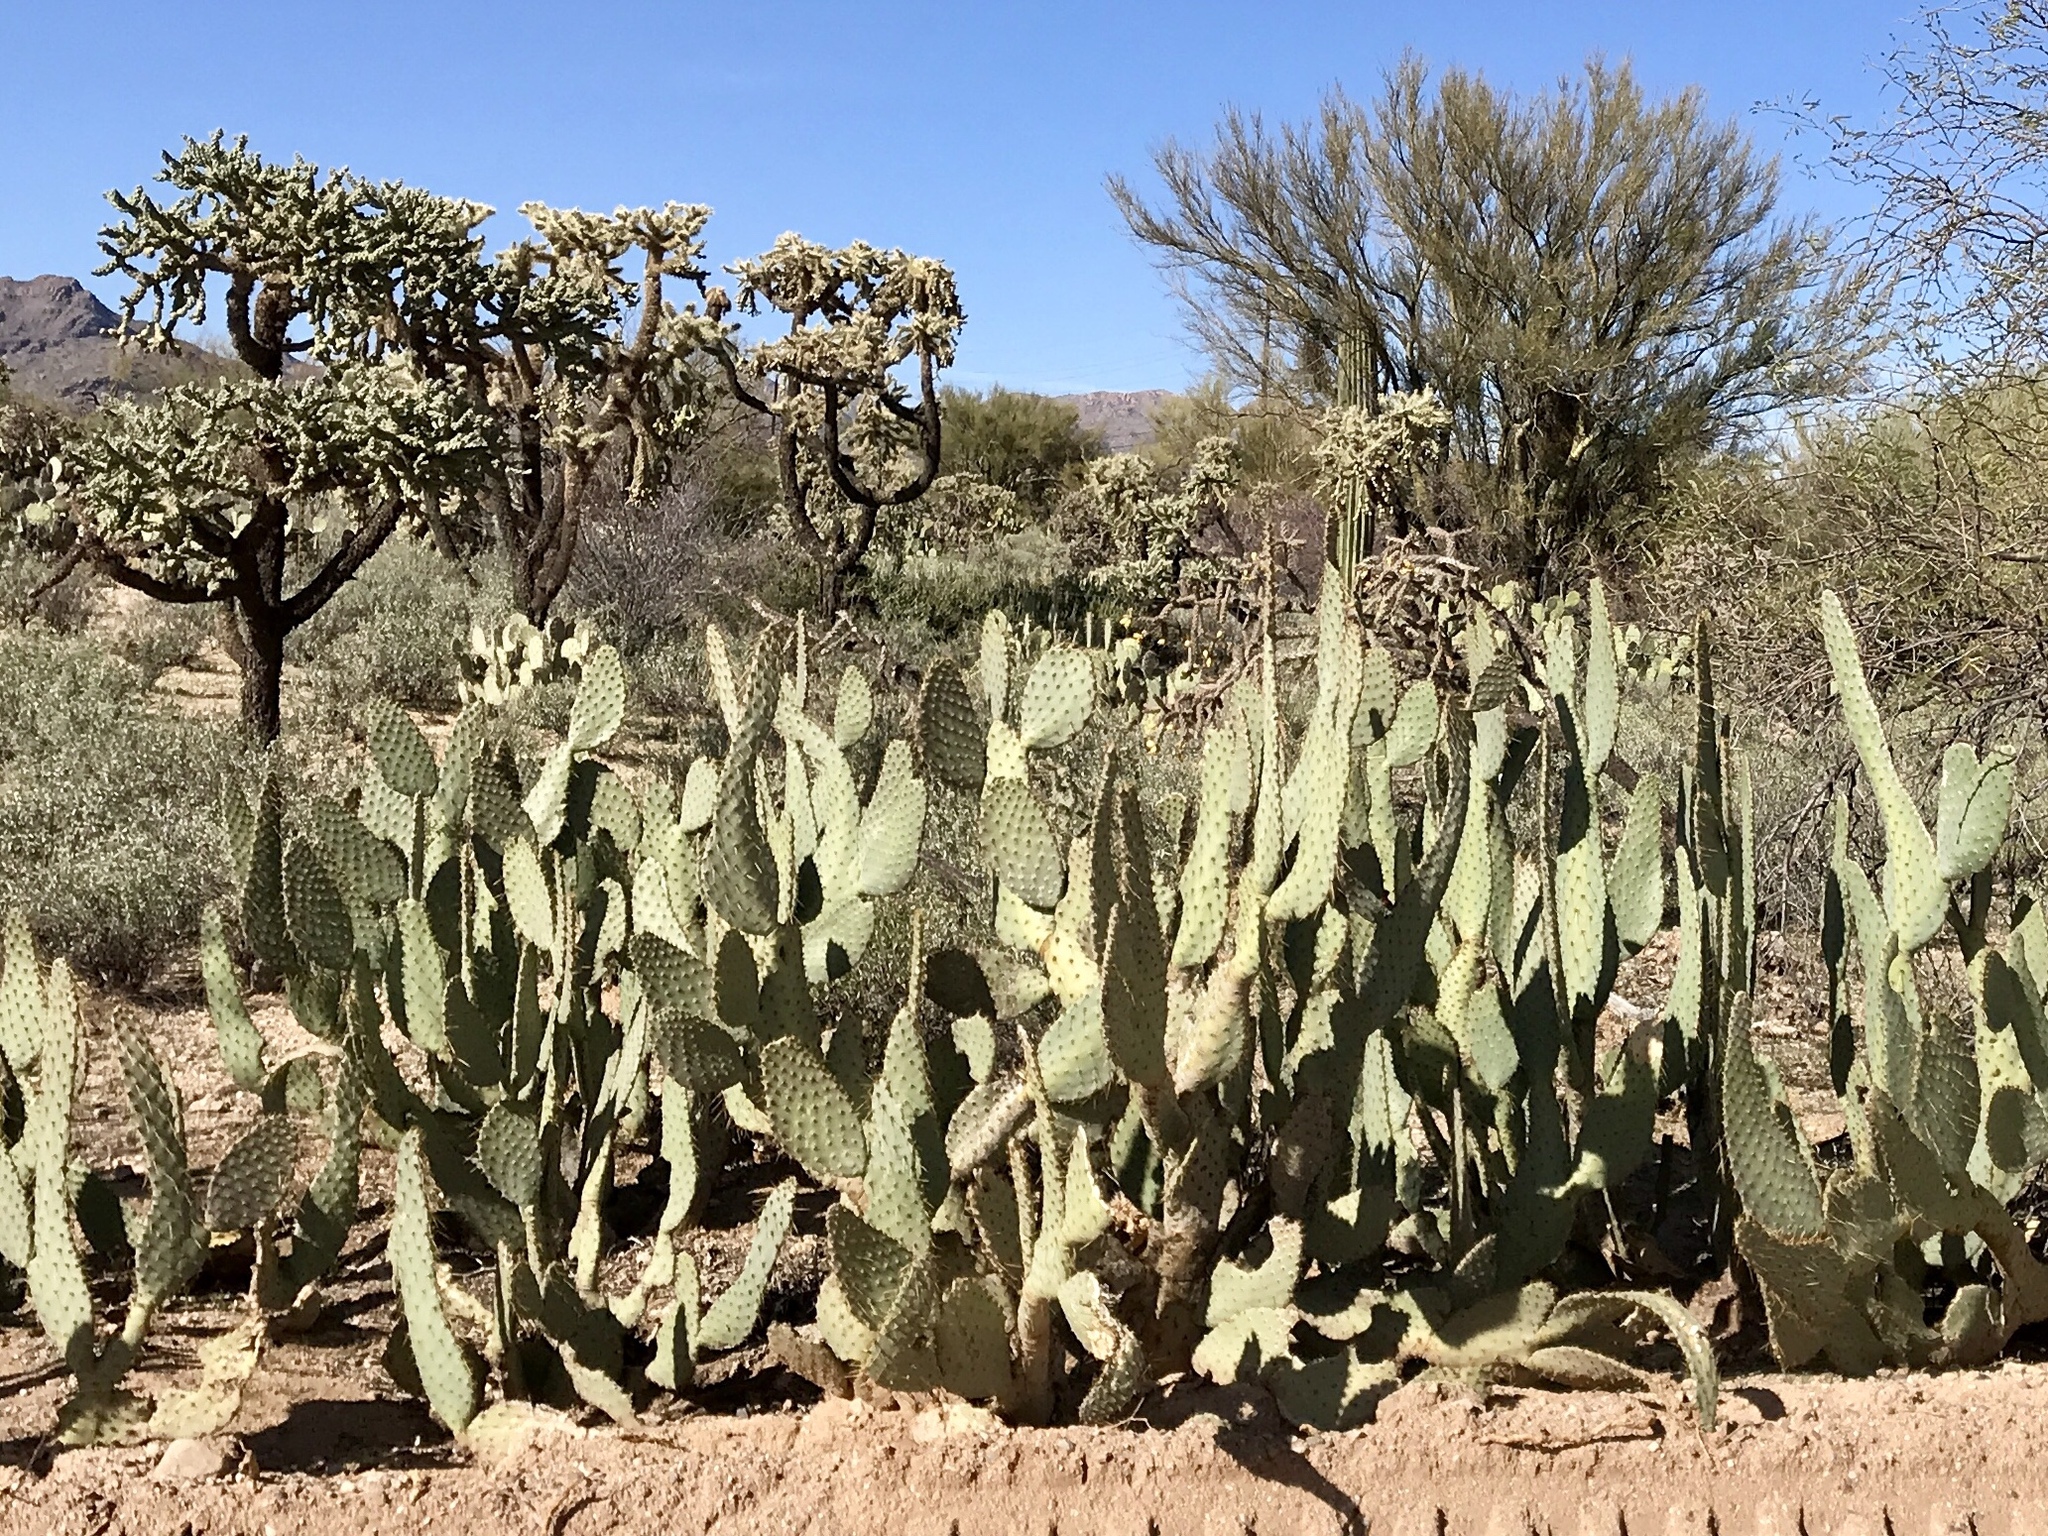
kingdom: Plantae
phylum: Tracheophyta
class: Magnoliopsida
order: Caryophyllales
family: Cactaceae
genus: Opuntia
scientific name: Opuntia engelmannii
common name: Cactus-apple
